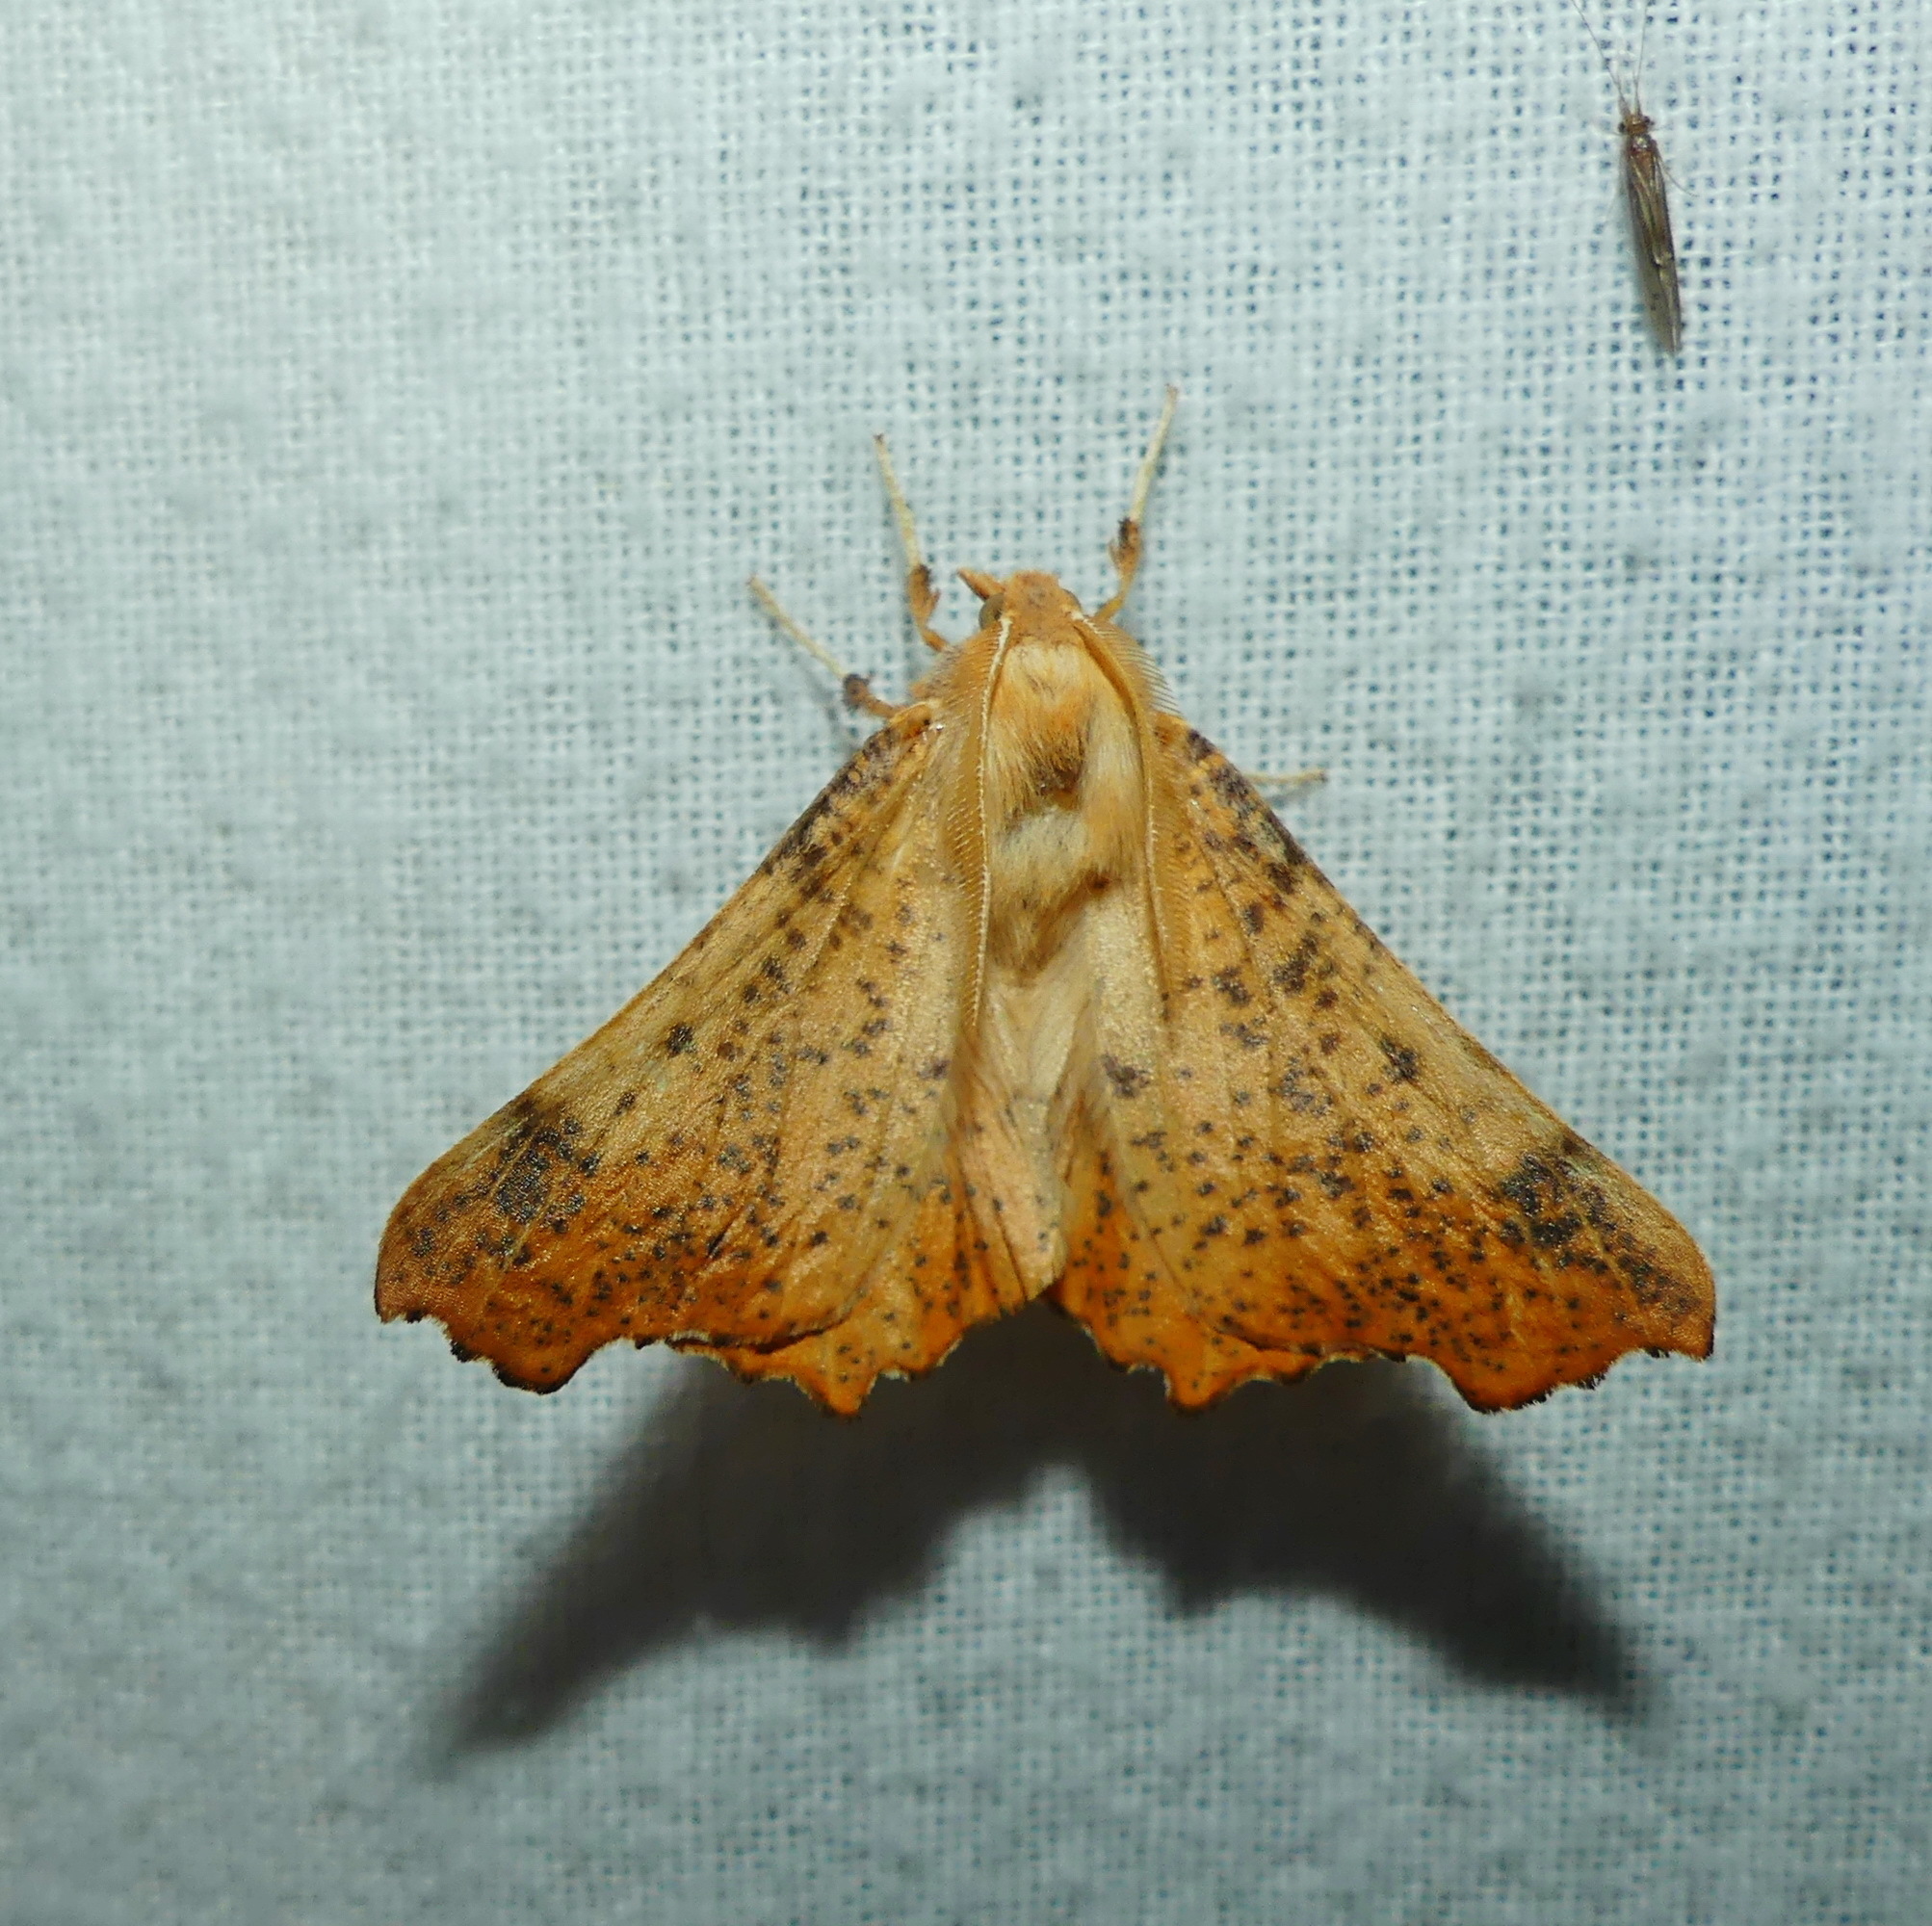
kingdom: Animalia
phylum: Arthropoda
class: Insecta
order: Lepidoptera
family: Geometridae
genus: Ennomos
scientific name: Ennomos magnaria
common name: Maple spanworm
